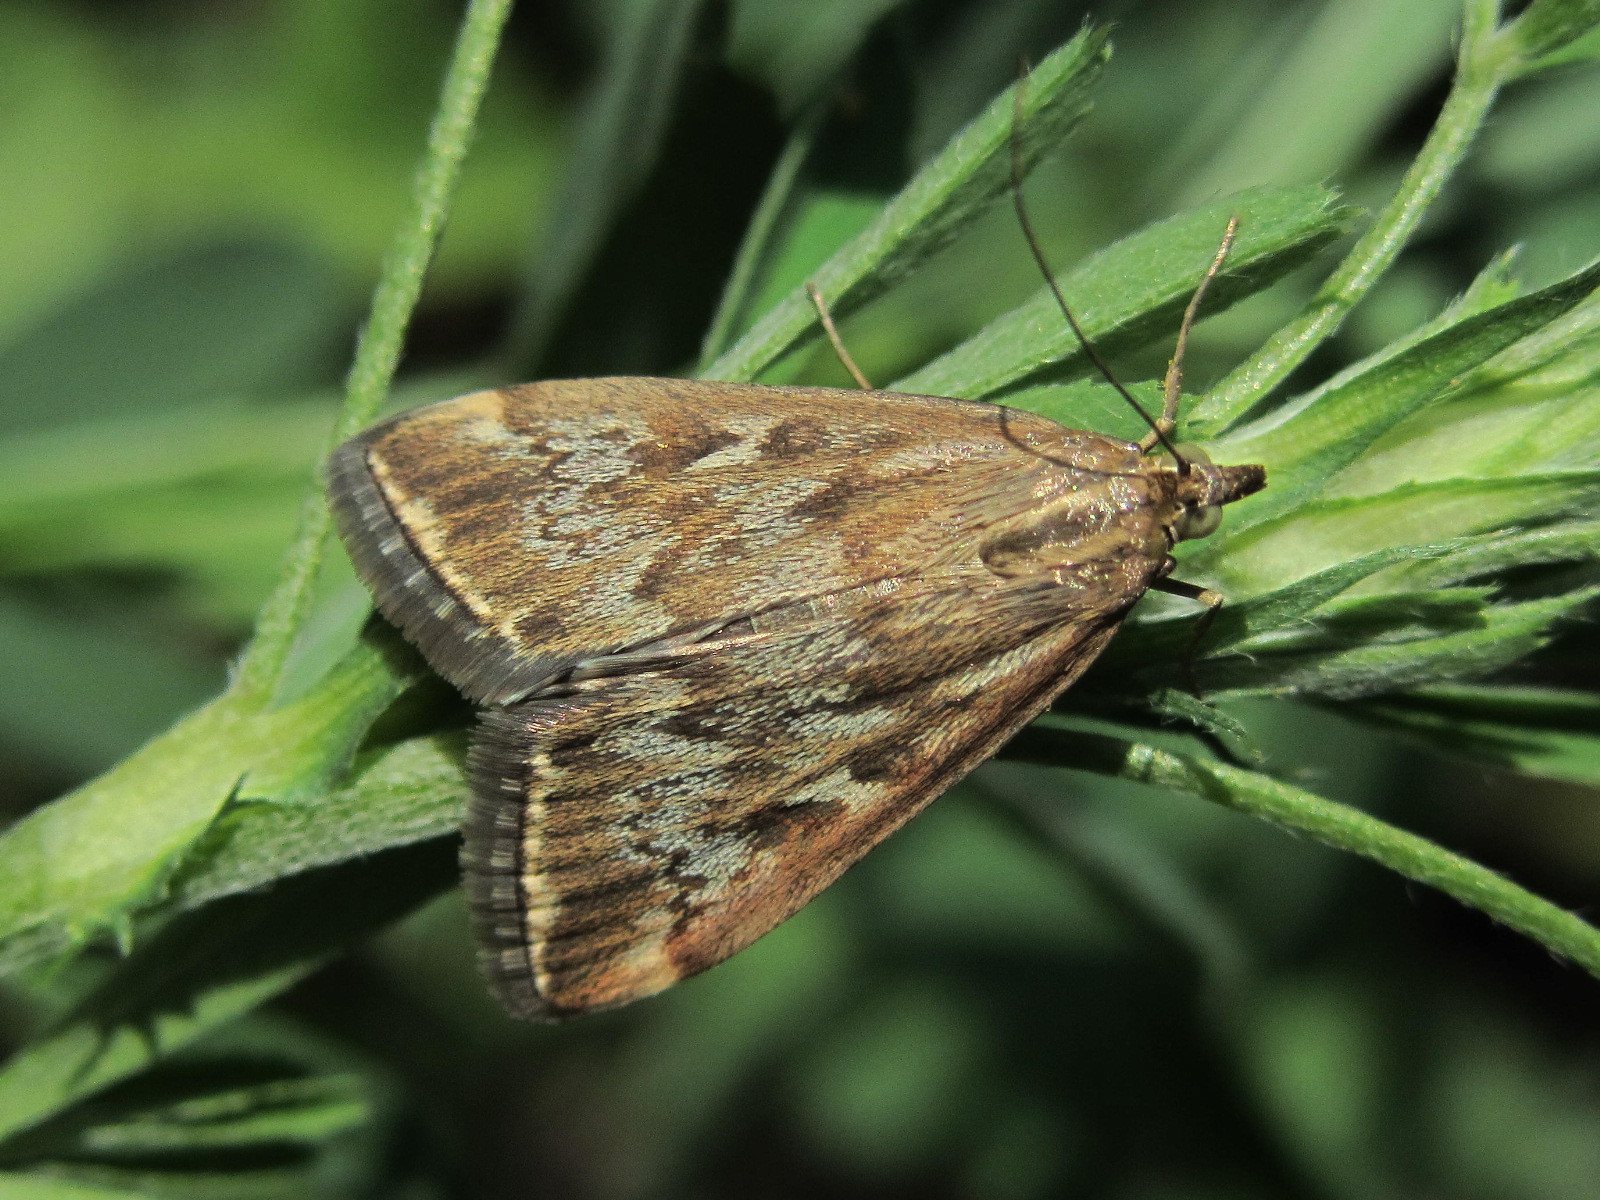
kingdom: Animalia
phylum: Arthropoda
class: Insecta
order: Lepidoptera
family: Crambidae
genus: Loxostege
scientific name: Loxostege sticticalis
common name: Crambid moth
